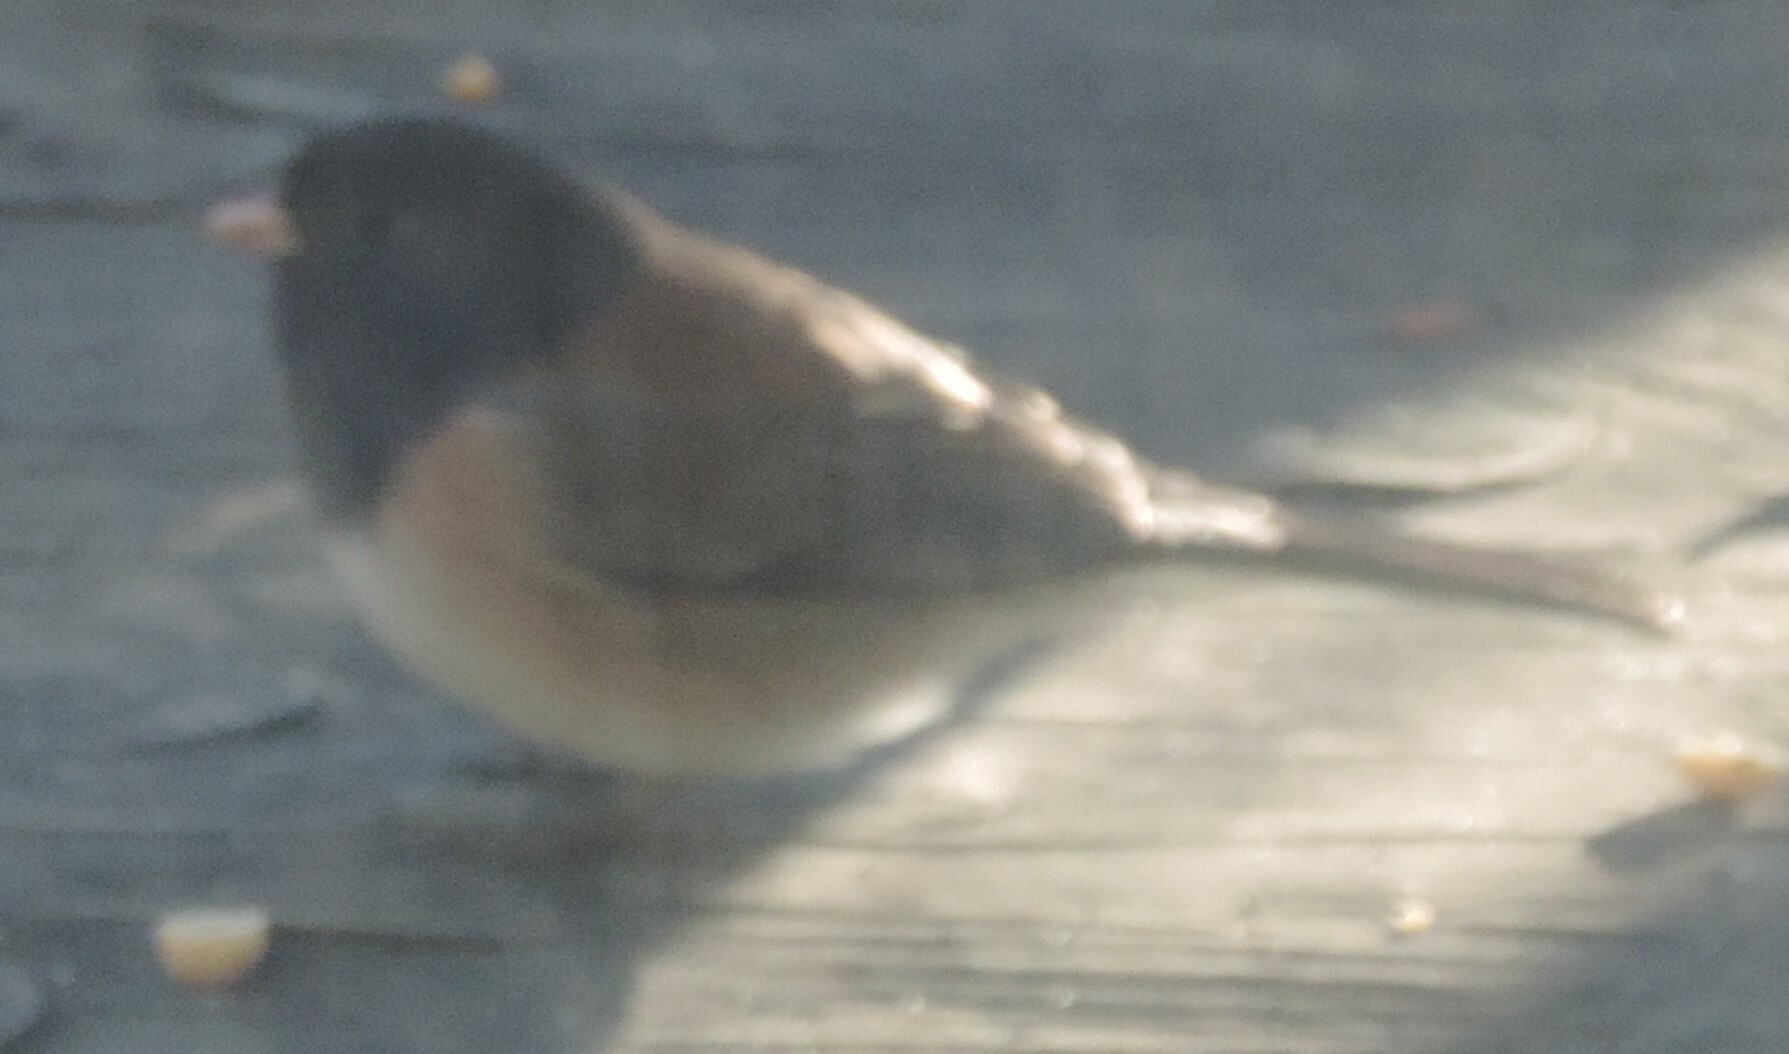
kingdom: Animalia
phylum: Chordata
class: Aves
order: Passeriformes
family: Passerellidae
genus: Junco
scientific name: Junco hyemalis
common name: Dark-eyed junco
